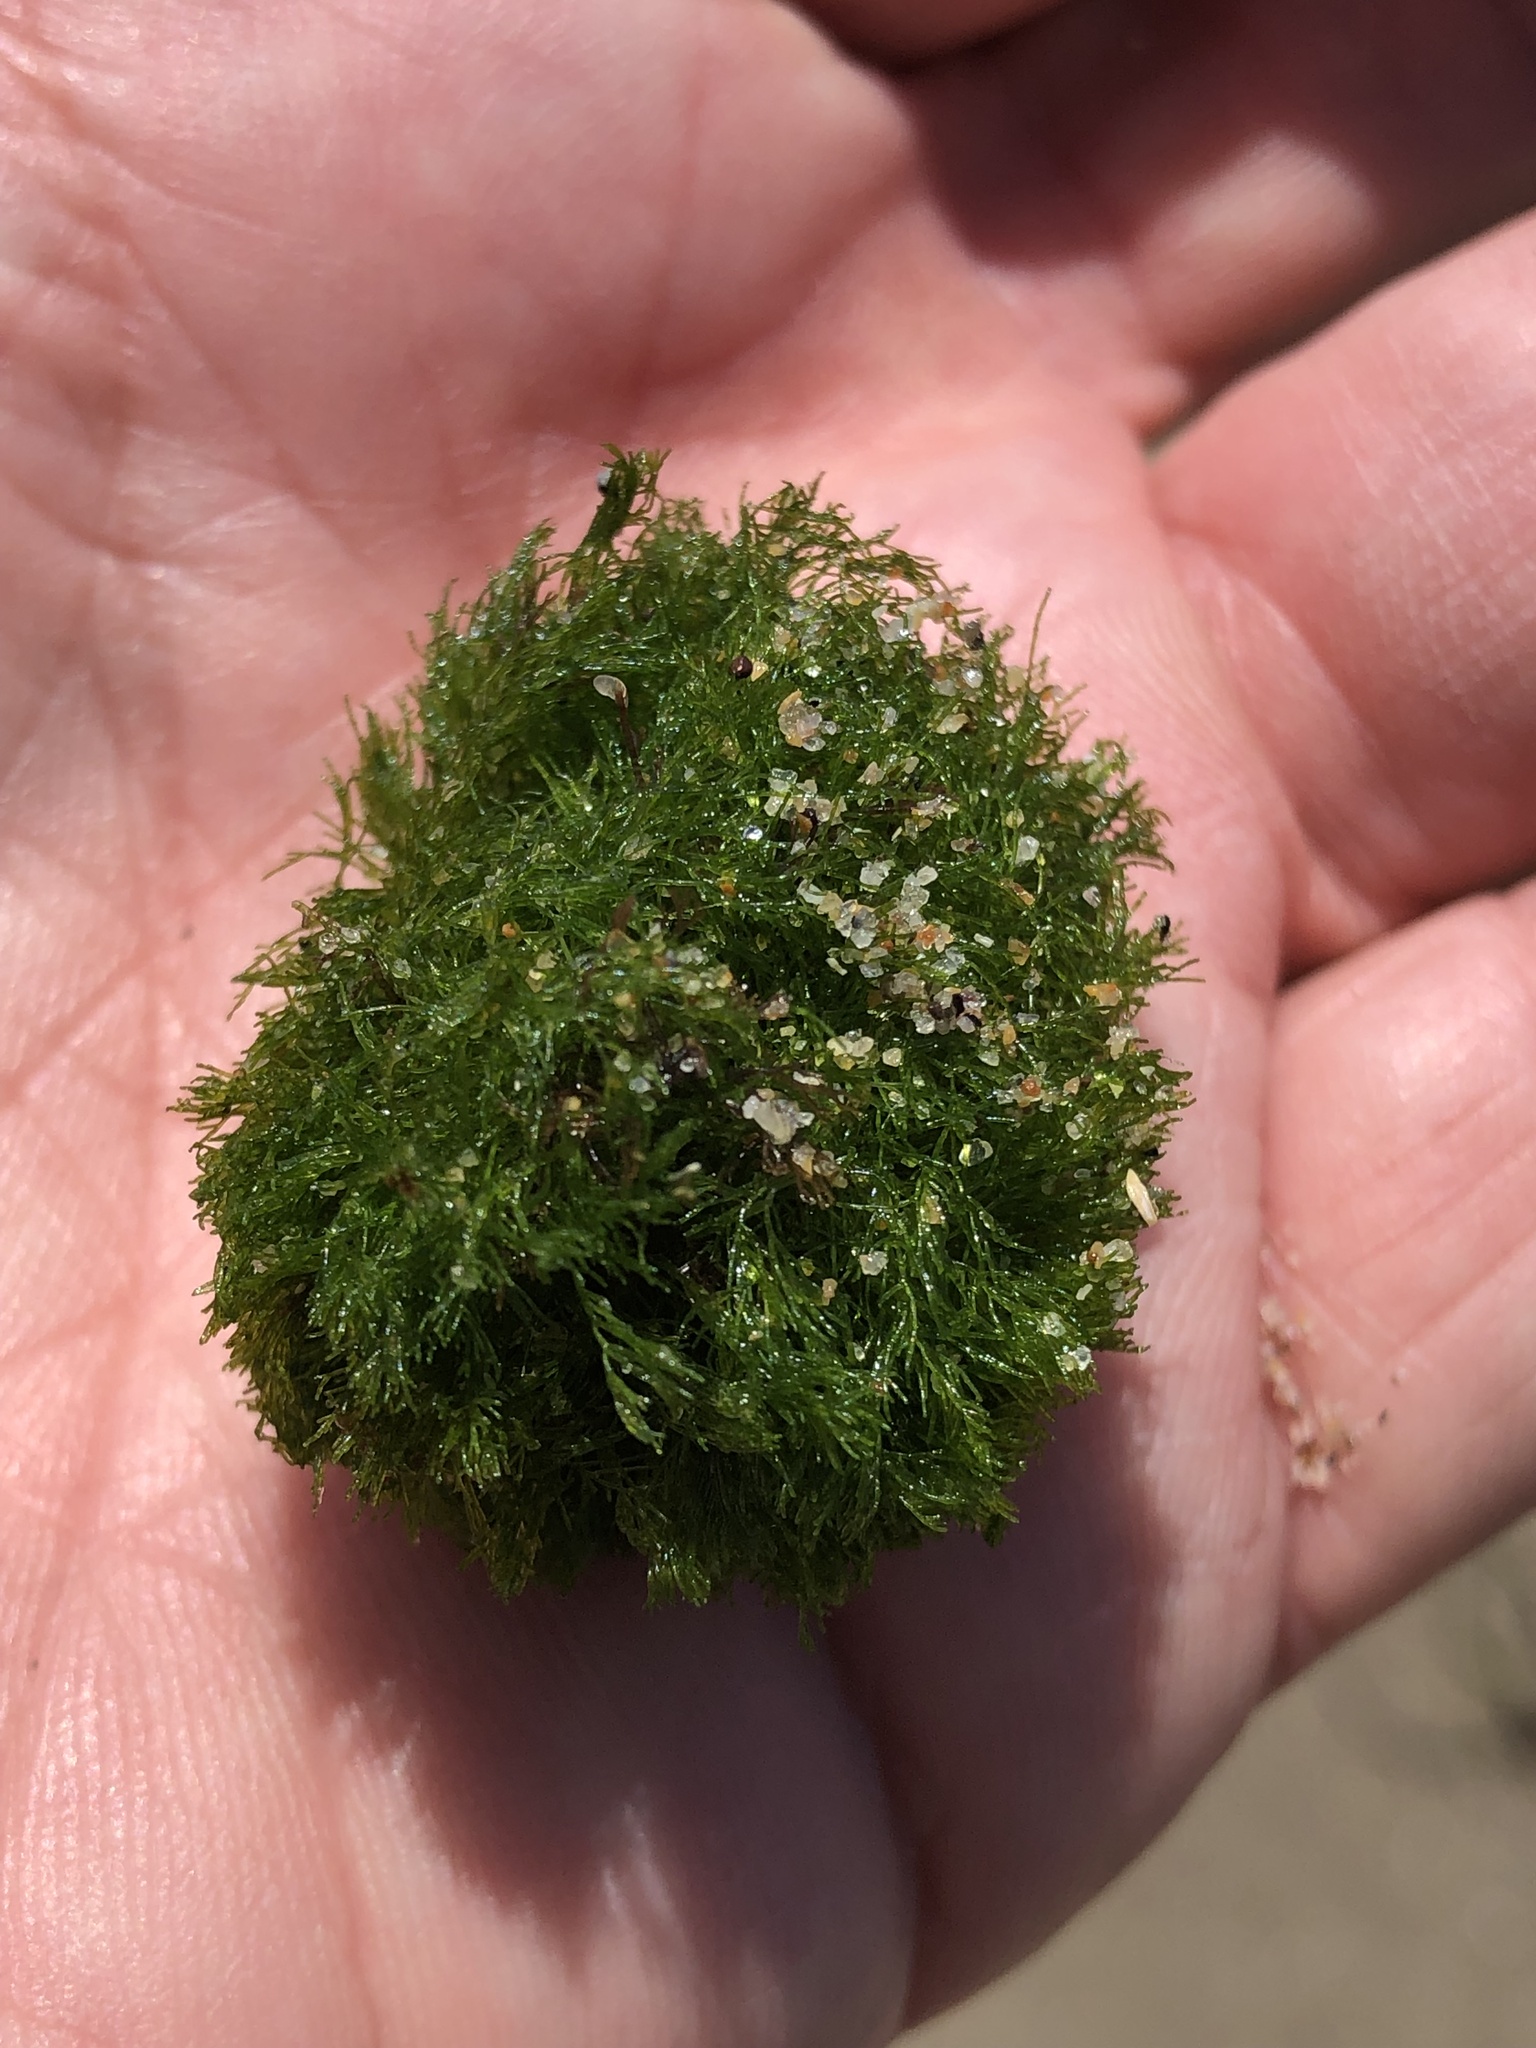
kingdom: Plantae
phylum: Chlorophyta
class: Ulvophyceae
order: Cladophorales
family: Cladophoraceae
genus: Cladophora
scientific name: Cladophora columbiana
